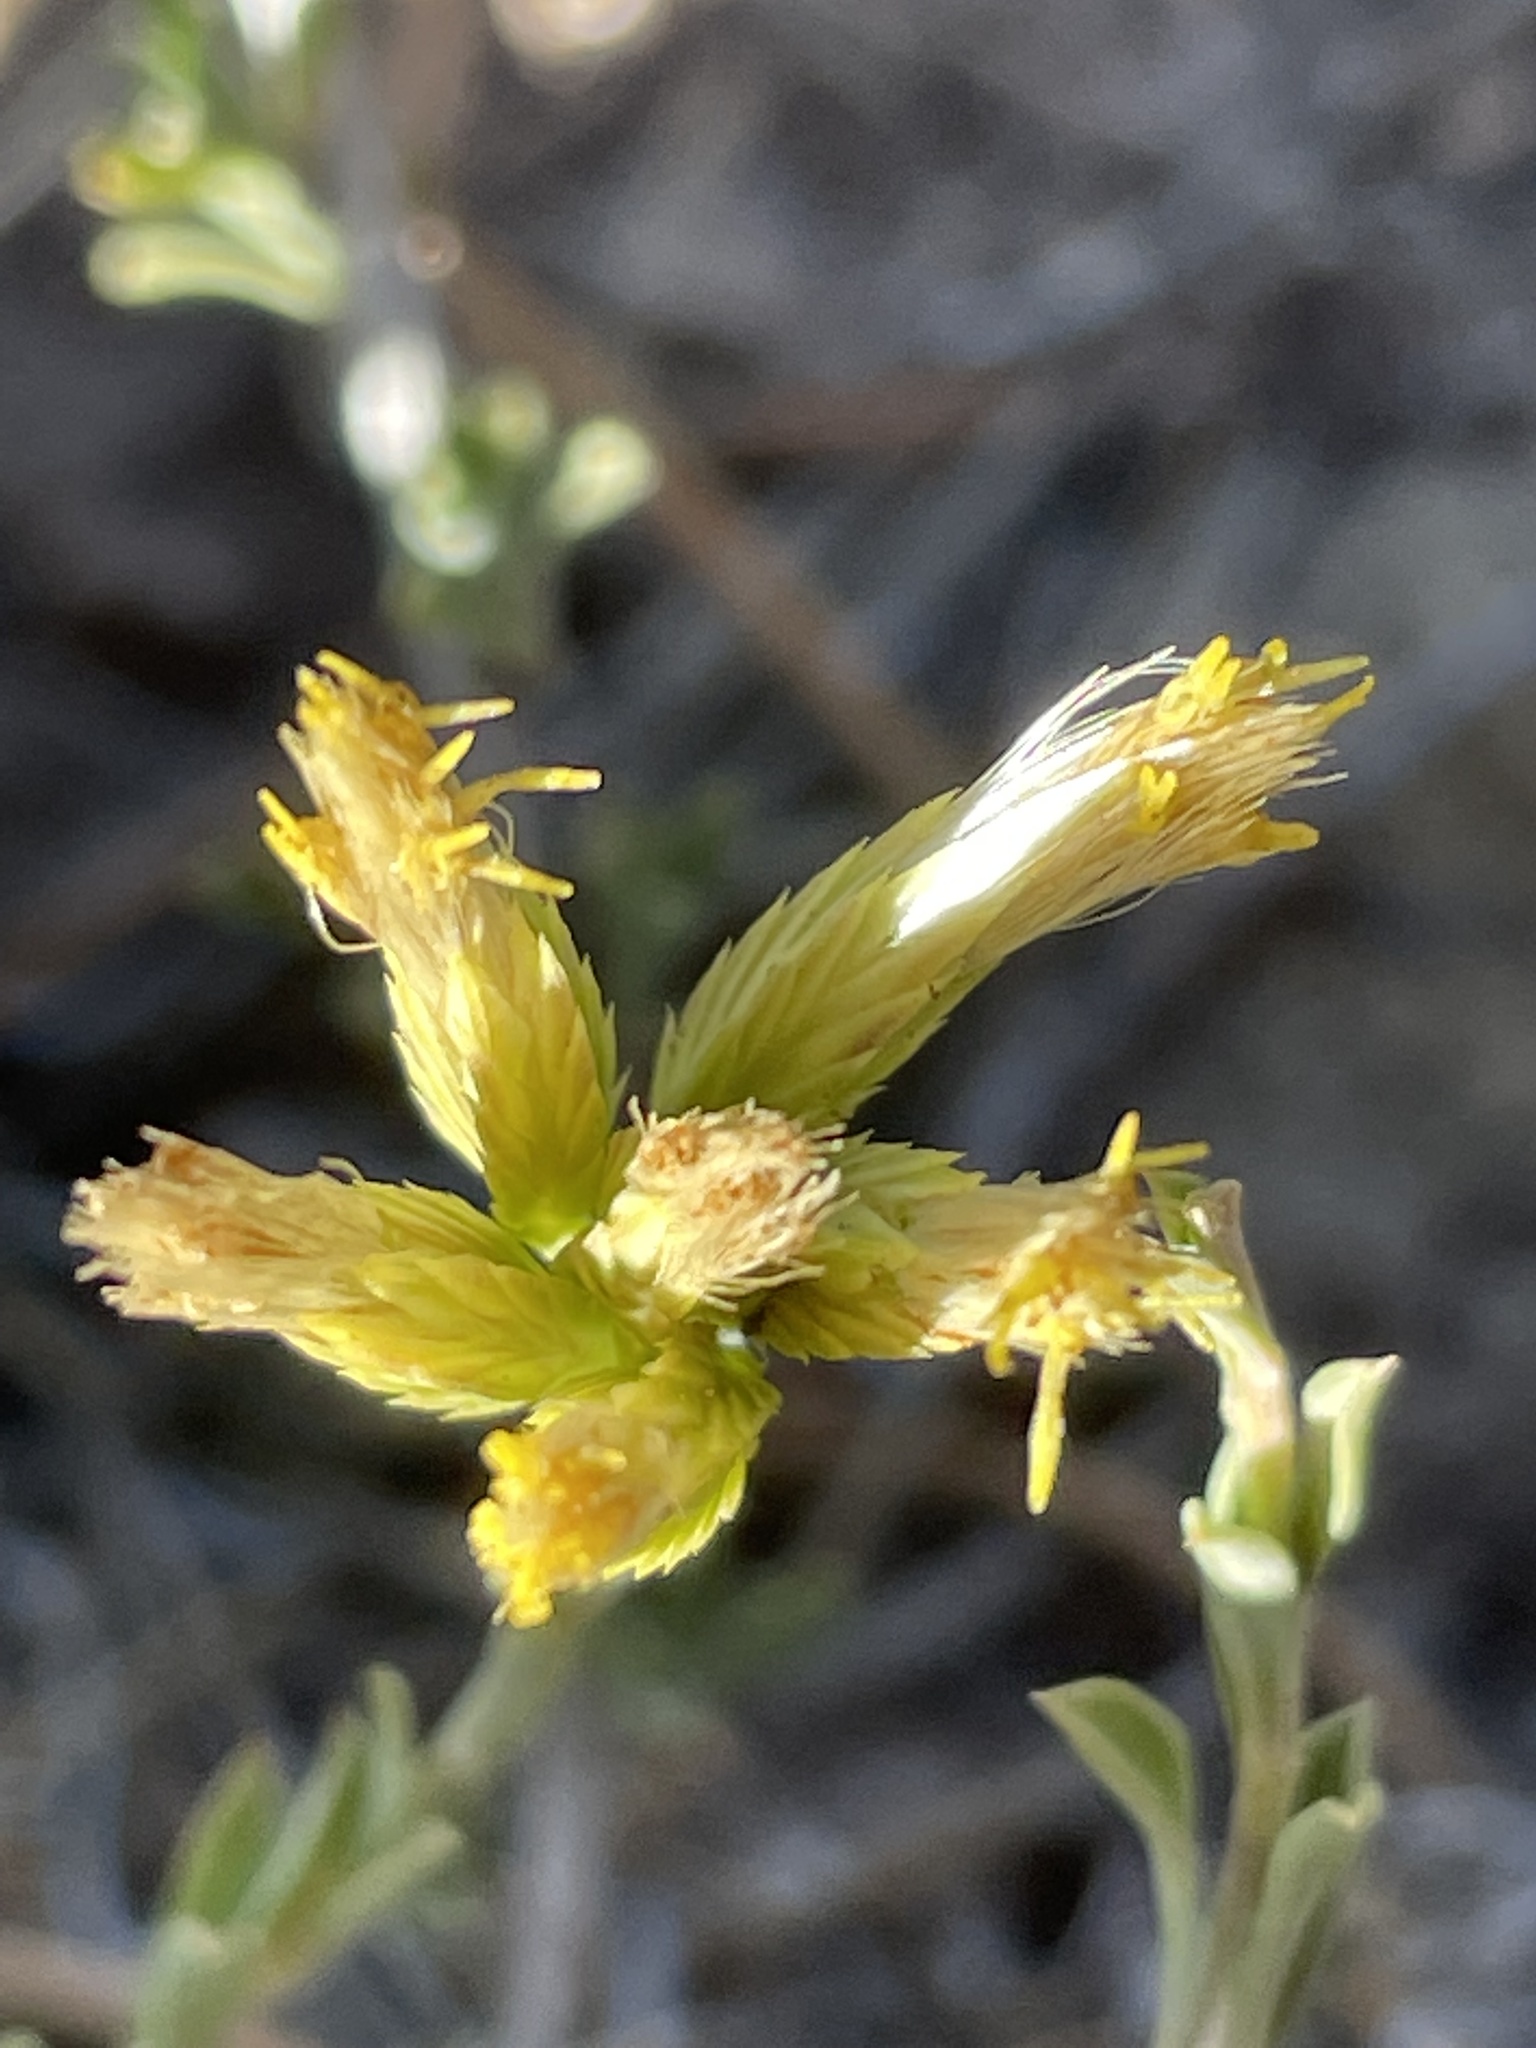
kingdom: Plantae
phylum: Tracheophyta
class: Magnoliopsida
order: Asterales
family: Asteraceae
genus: Chrysothamnus
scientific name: Chrysothamnus depressus
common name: Long-flower rabbitbrush
